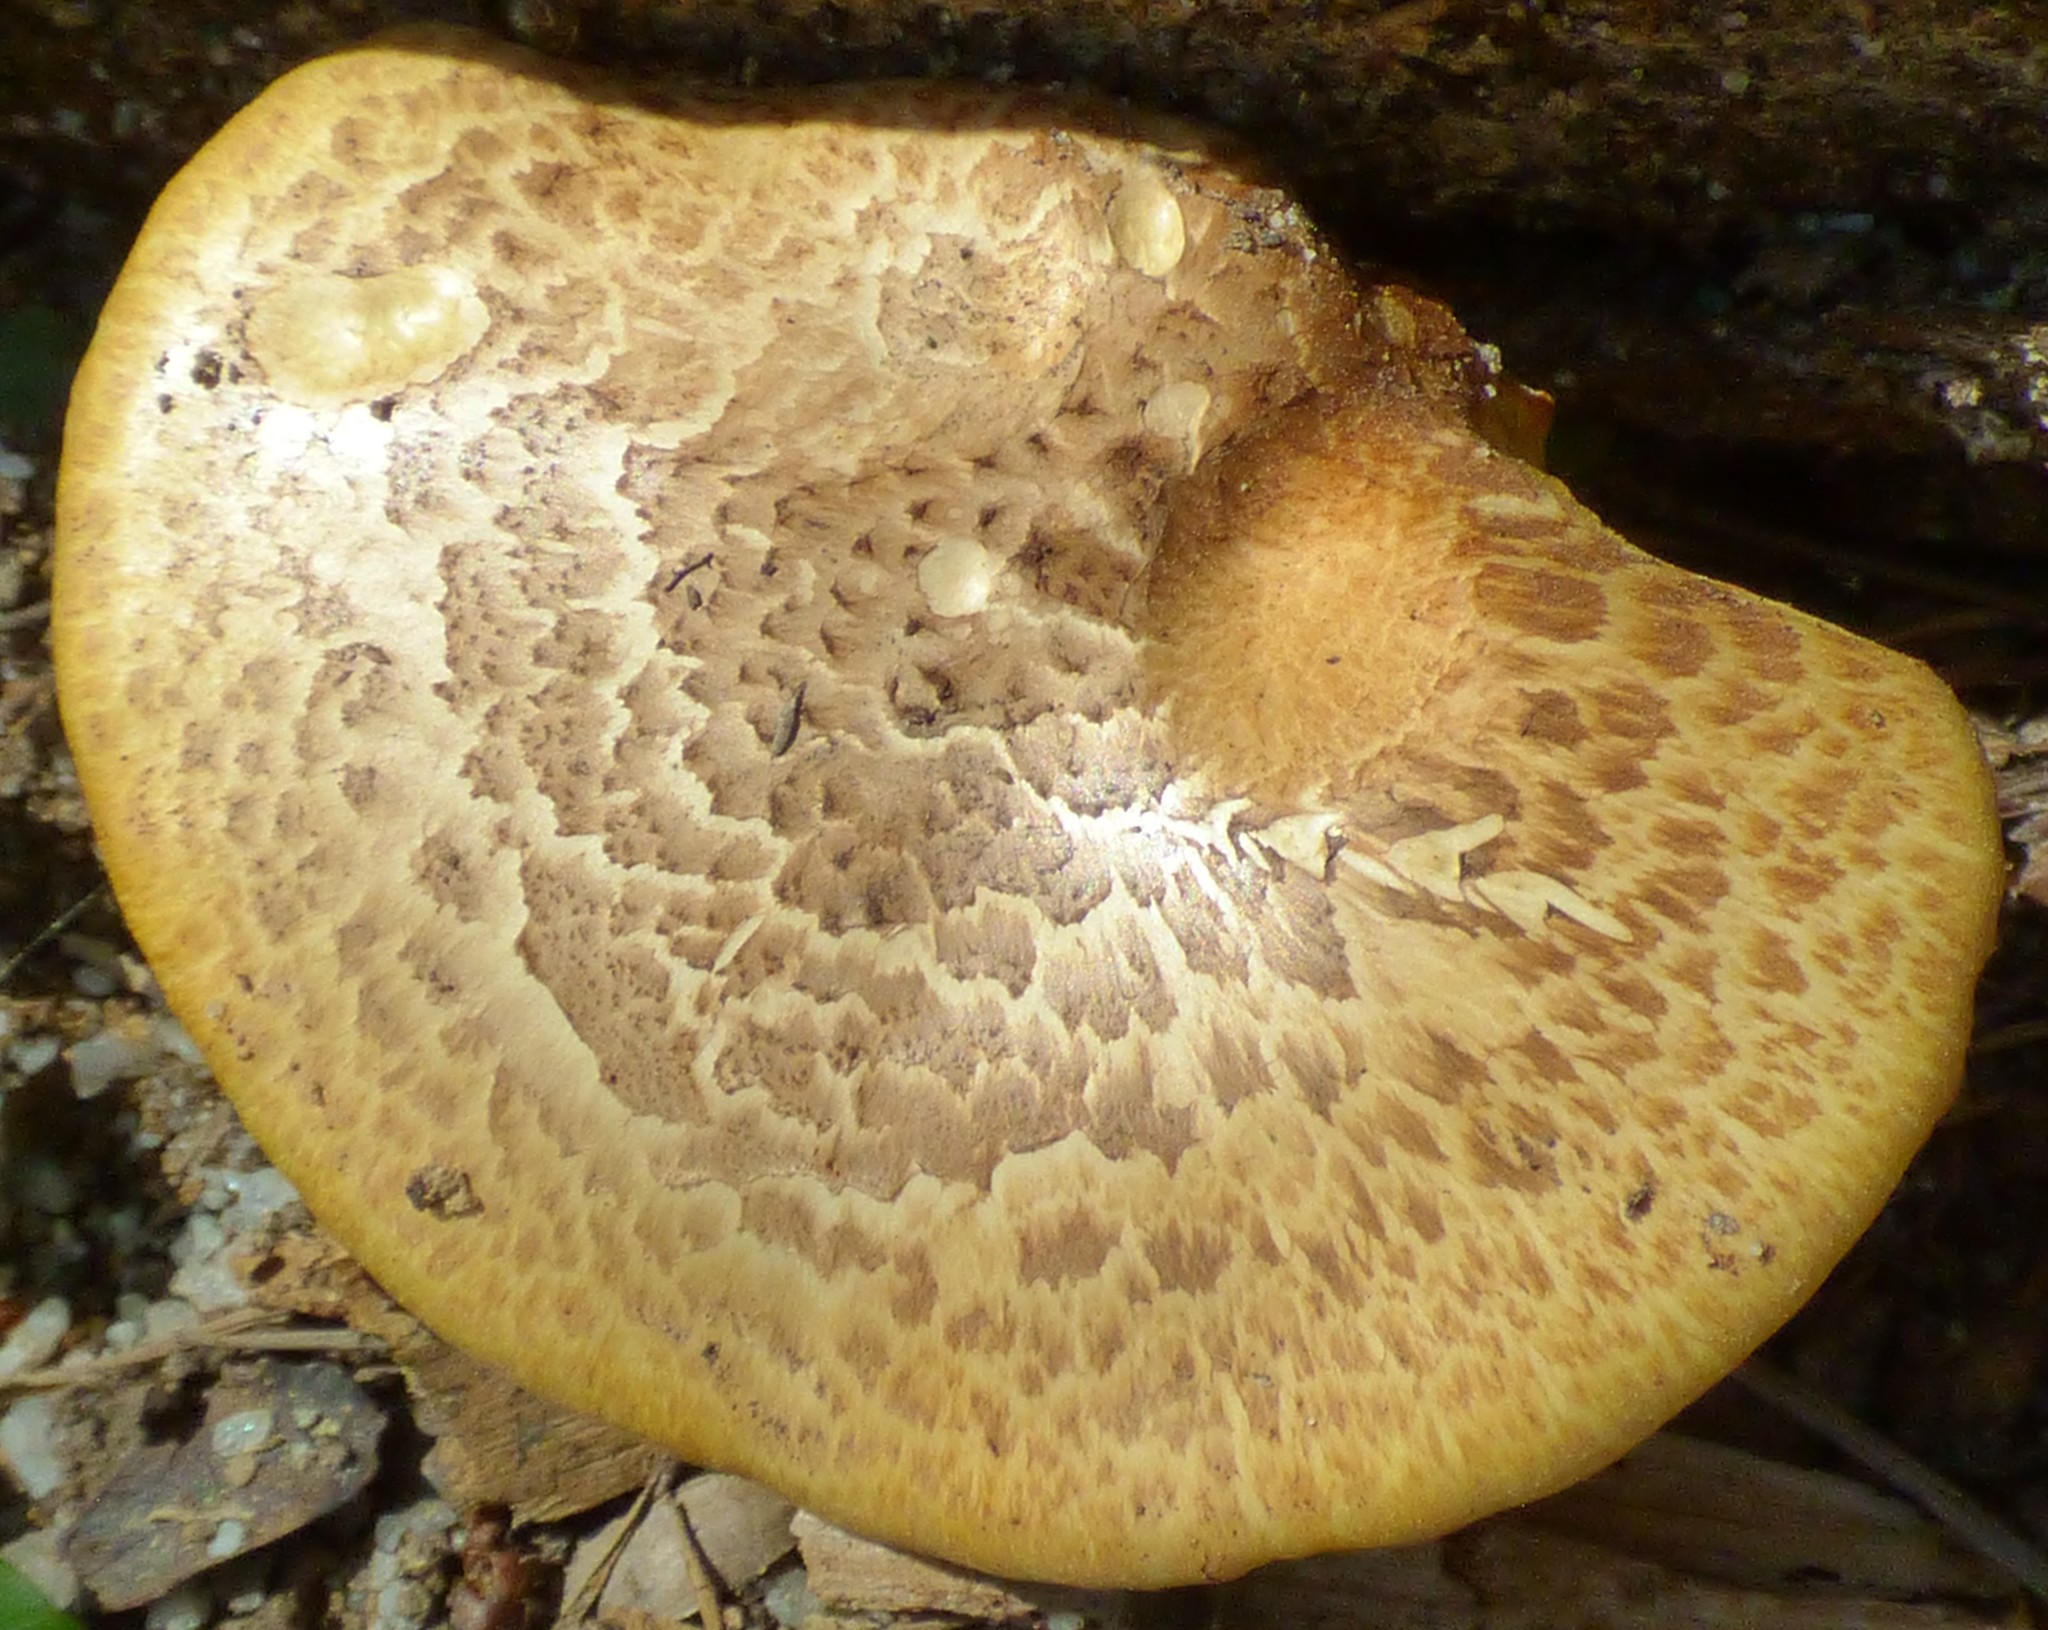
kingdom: Fungi
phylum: Basidiomycota
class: Agaricomycetes
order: Polyporales
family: Polyporaceae
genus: Cerioporus
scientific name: Cerioporus squamosus
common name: Dryad's saddle
